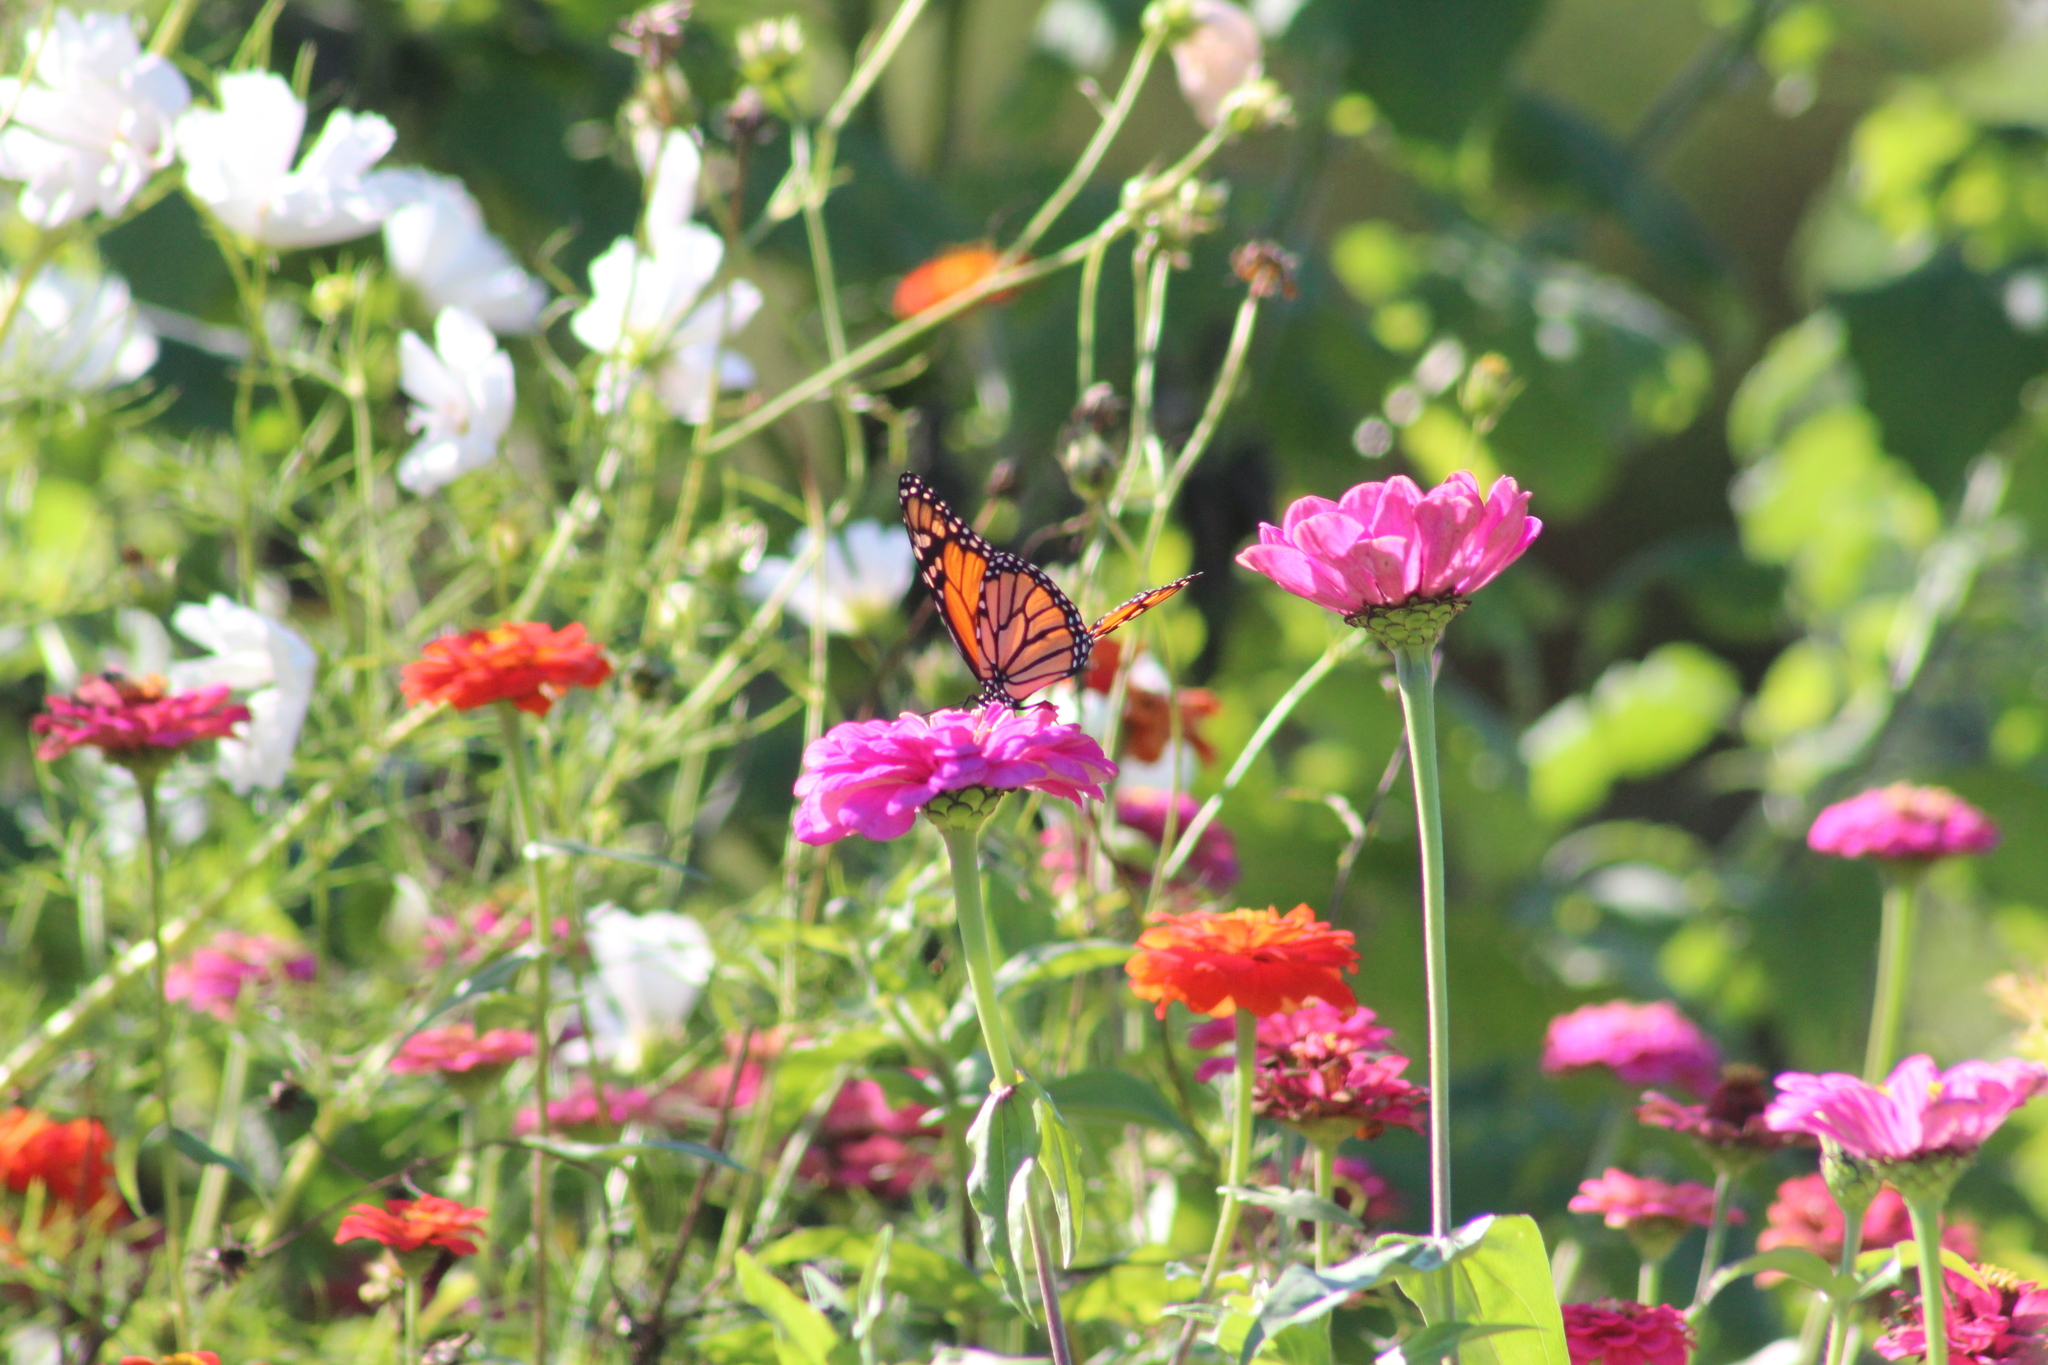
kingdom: Animalia
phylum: Arthropoda
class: Insecta
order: Lepidoptera
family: Nymphalidae
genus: Danaus
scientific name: Danaus plexippus
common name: Monarch
